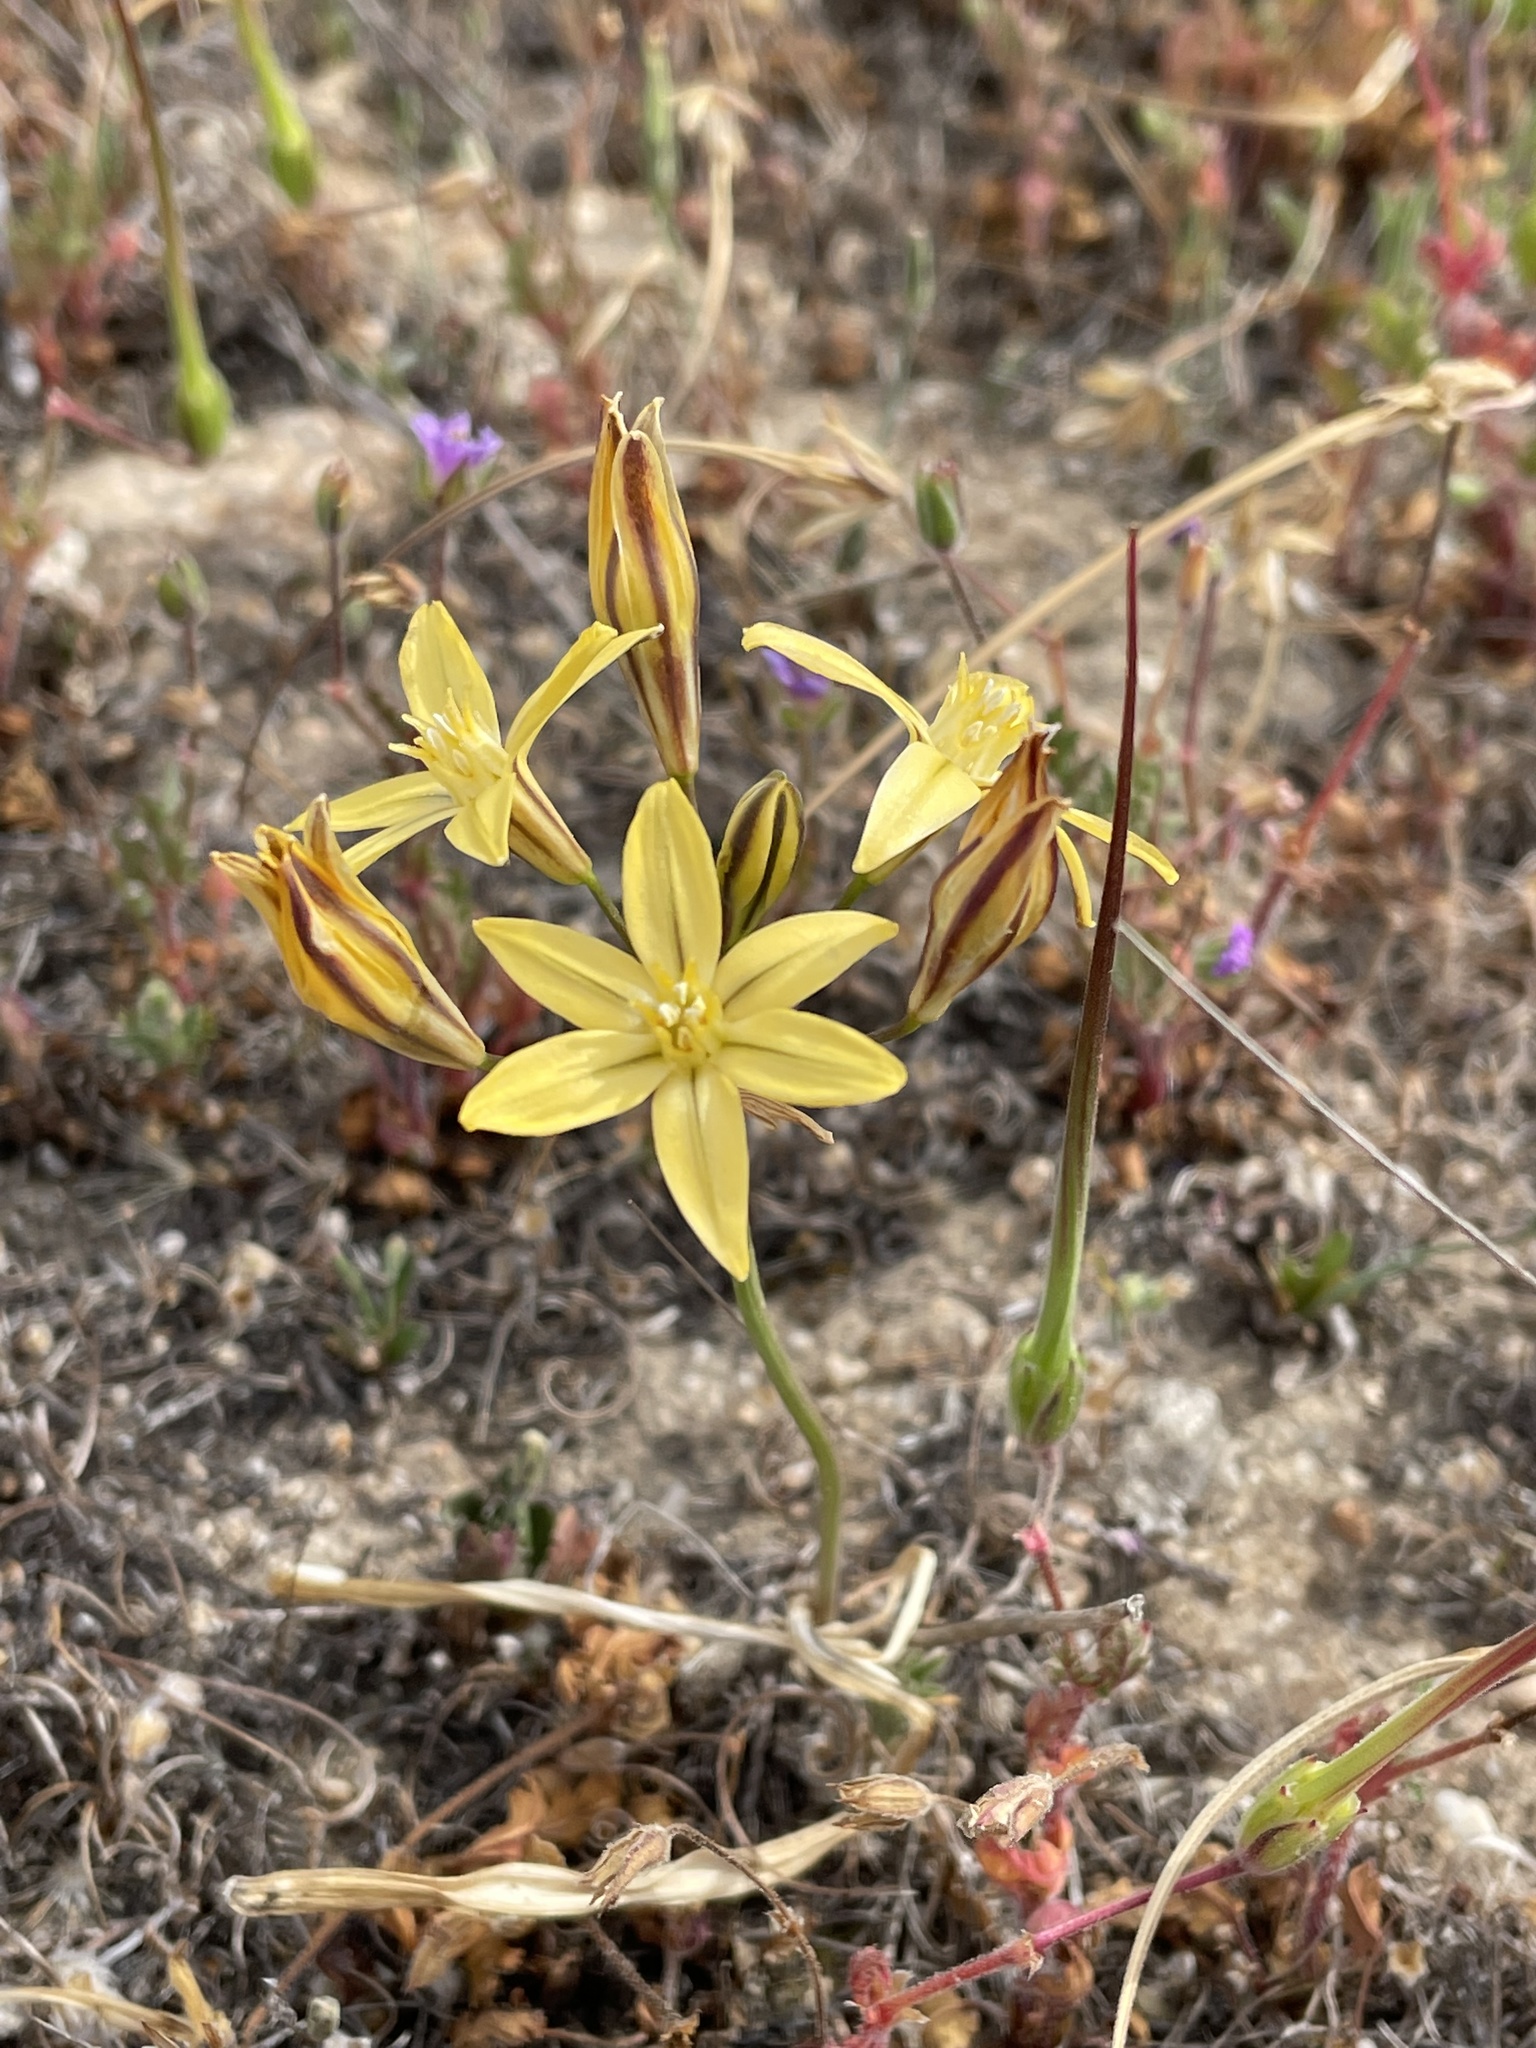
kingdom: Plantae
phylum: Tracheophyta
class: Liliopsida
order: Asparagales
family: Asparagaceae
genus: Triteleia
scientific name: Triteleia ixioides
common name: Yellow-brodiaea
